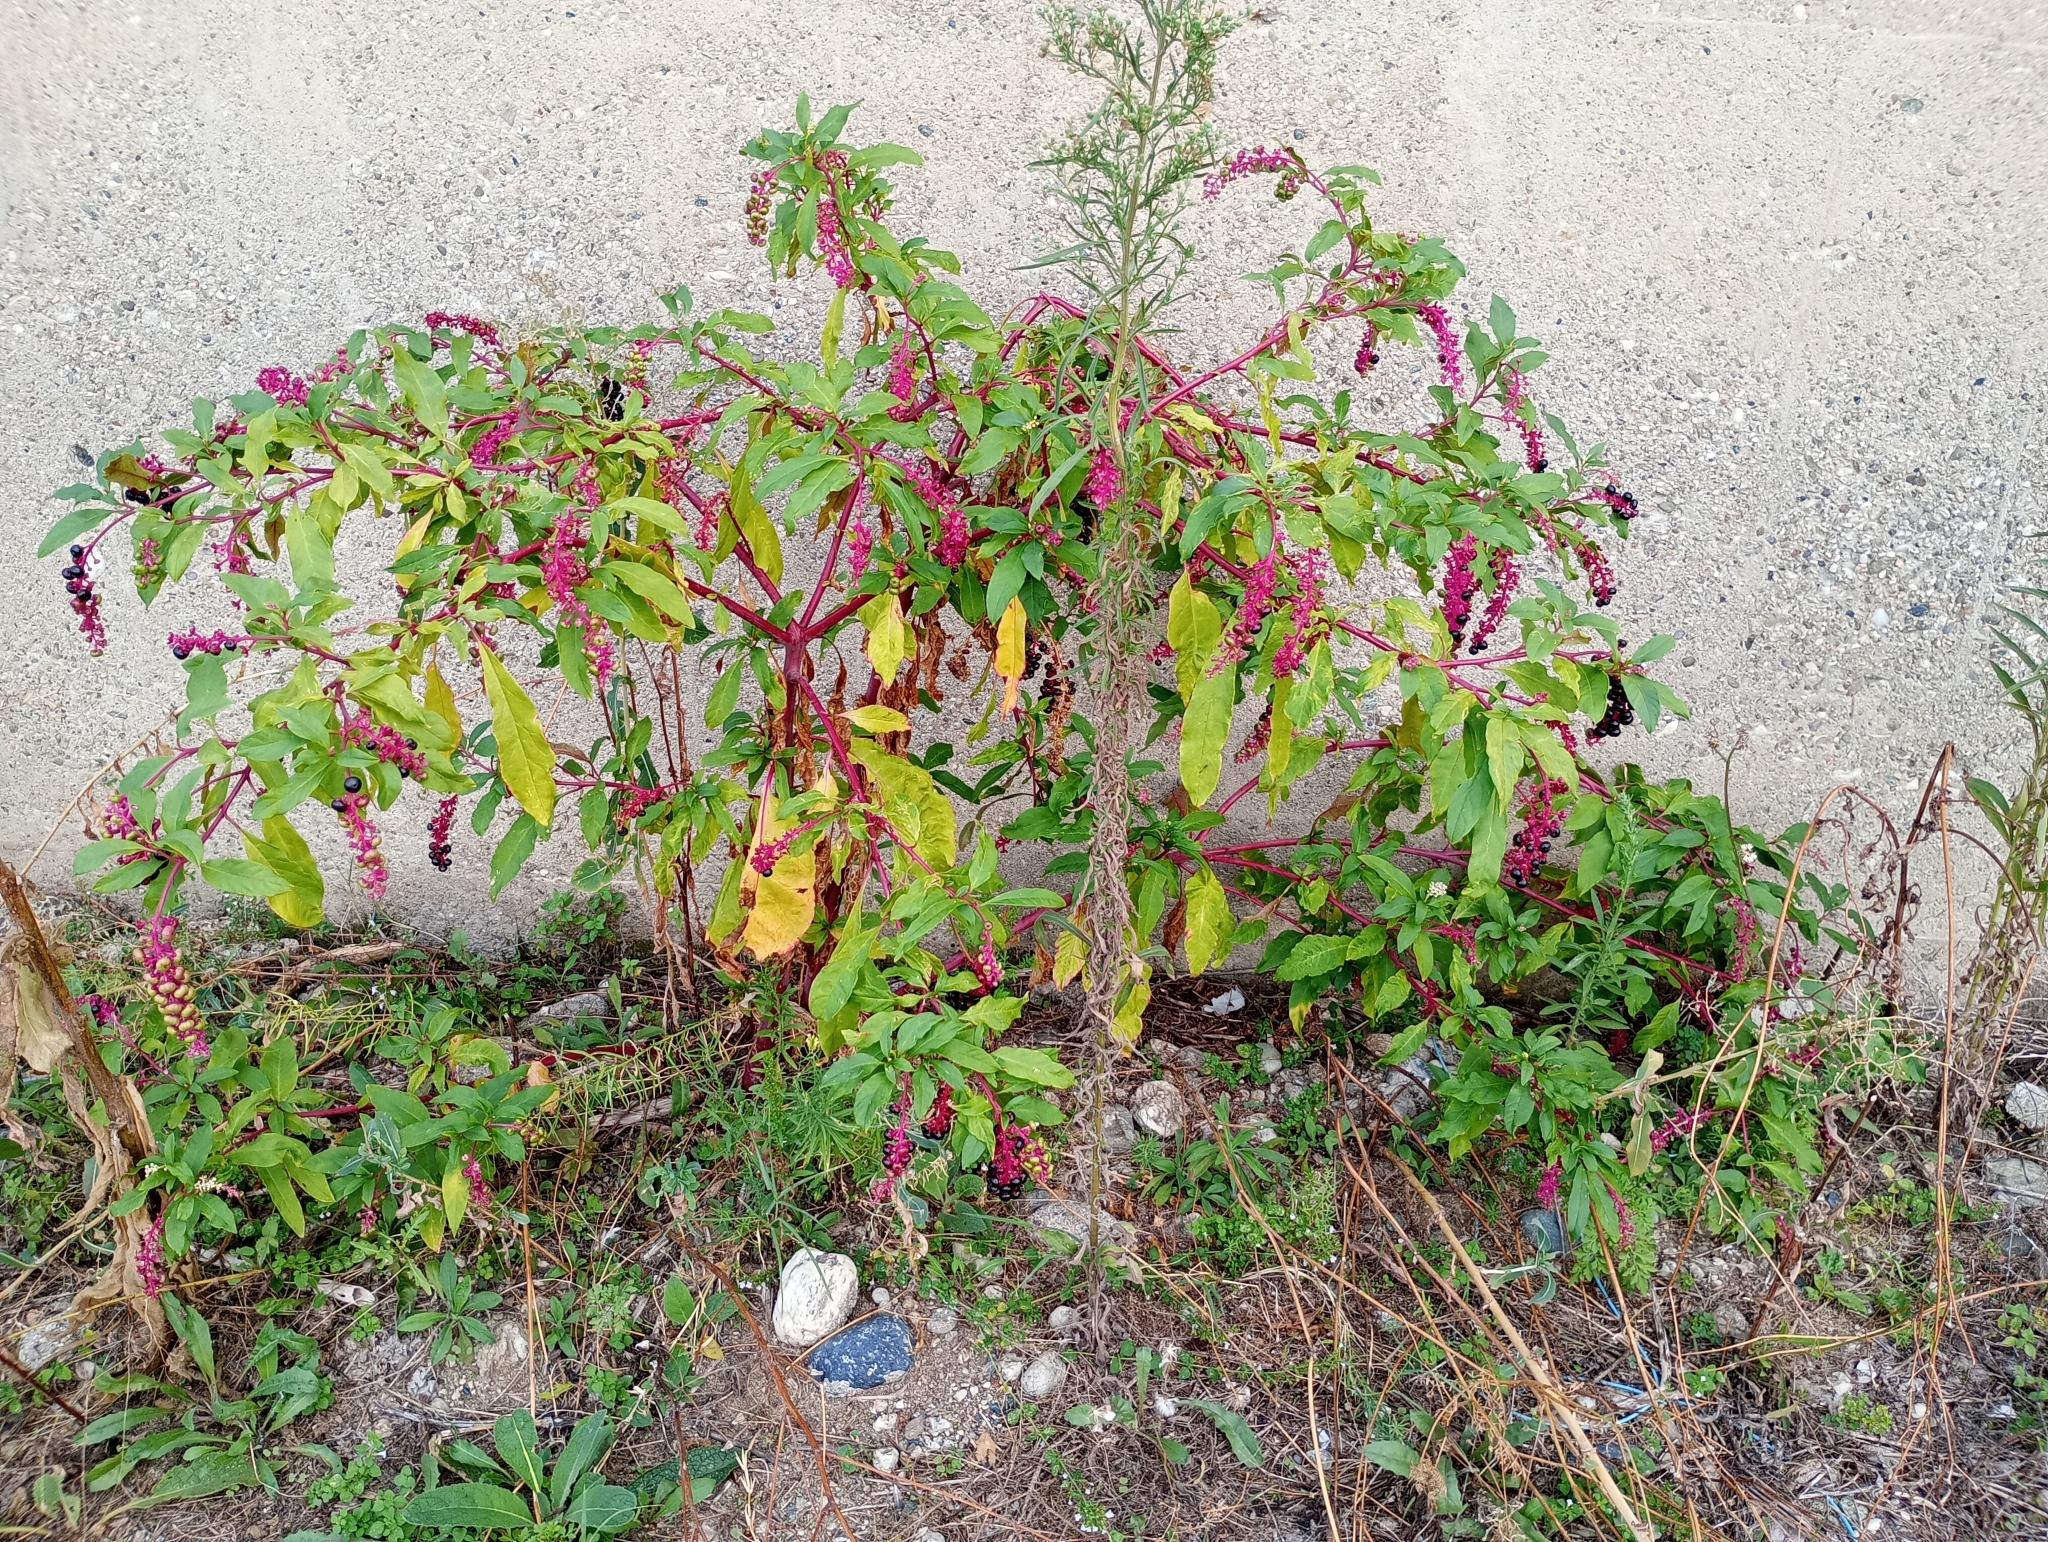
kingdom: Plantae
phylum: Tracheophyta
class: Magnoliopsida
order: Caryophyllales
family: Phytolaccaceae
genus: Phytolacca
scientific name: Phytolacca americana
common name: American pokeweed
